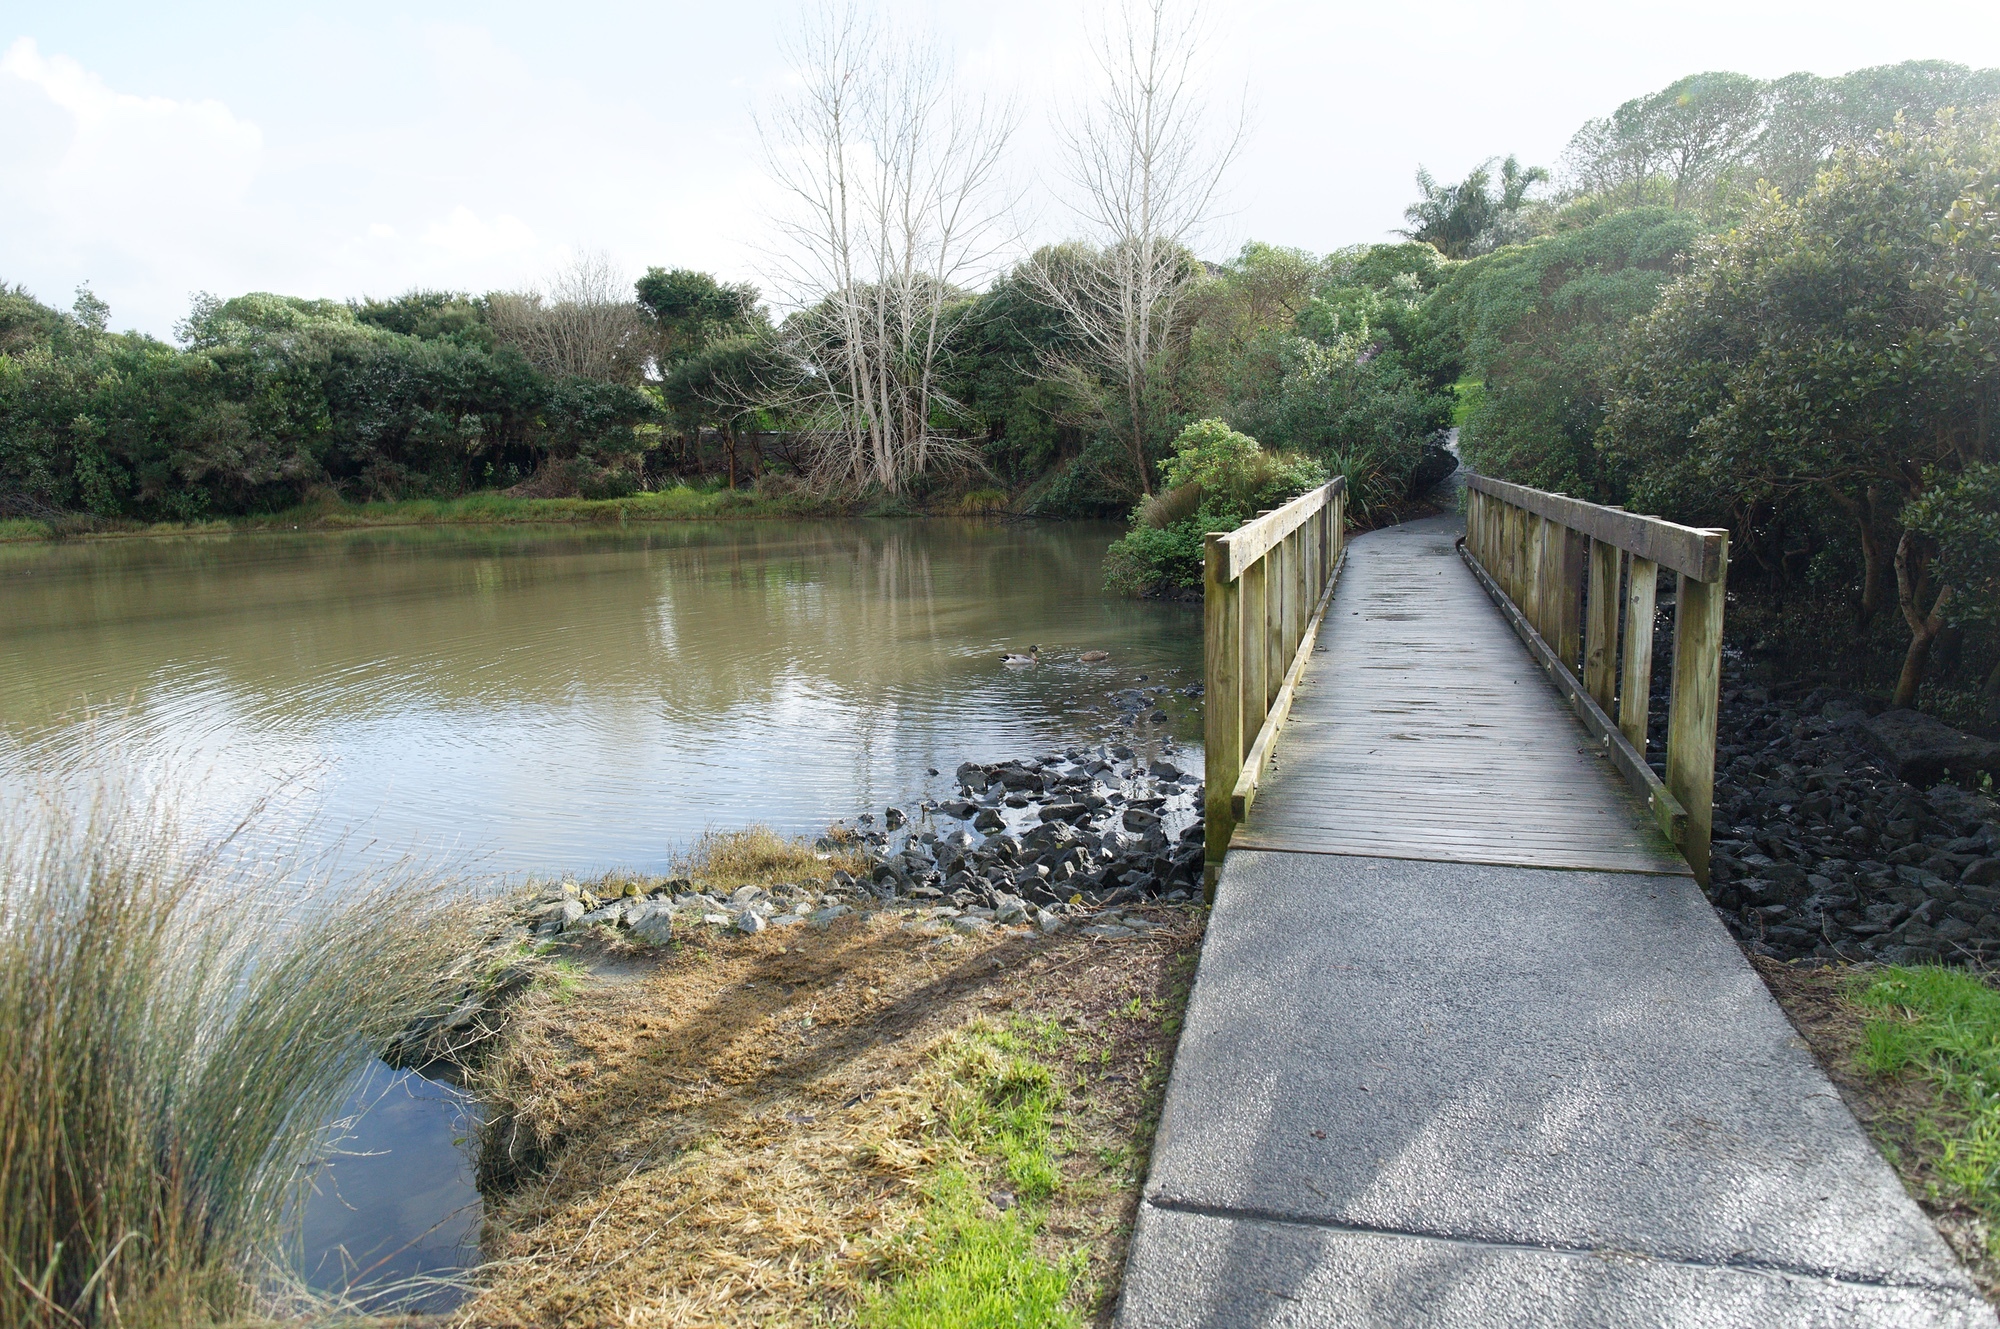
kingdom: Animalia
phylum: Chordata
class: Aves
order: Anseriformes
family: Anatidae
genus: Anas
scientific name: Anas platyrhynchos
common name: Mallard
